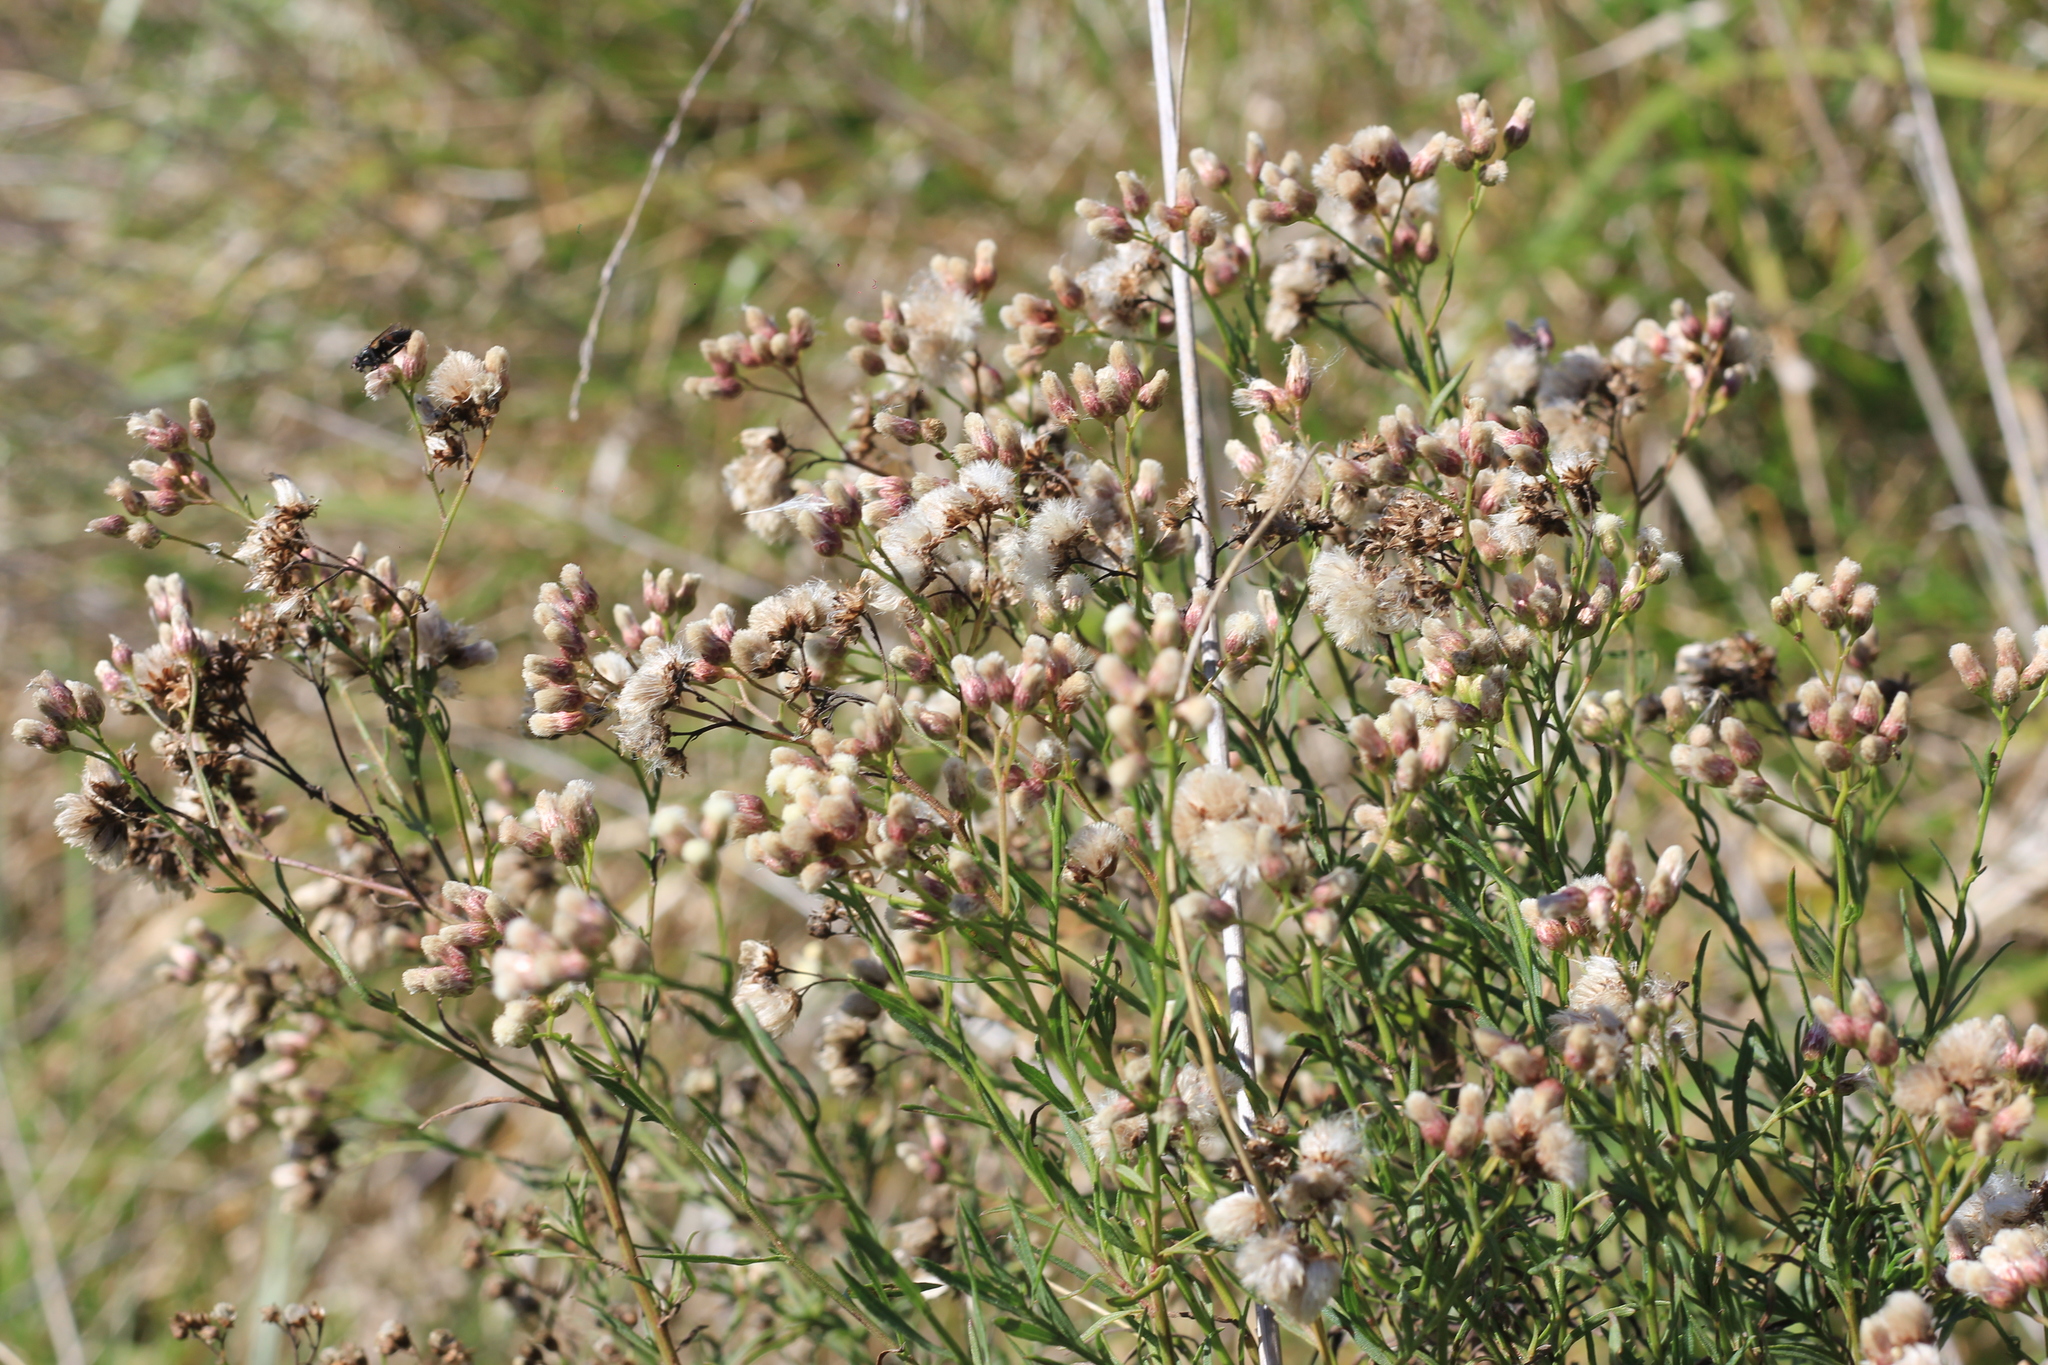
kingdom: Plantae
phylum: Tracheophyta
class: Magnoliopsida
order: Asterales
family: Asteraceae
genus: Baccharis
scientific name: Baccharis stenophylla
